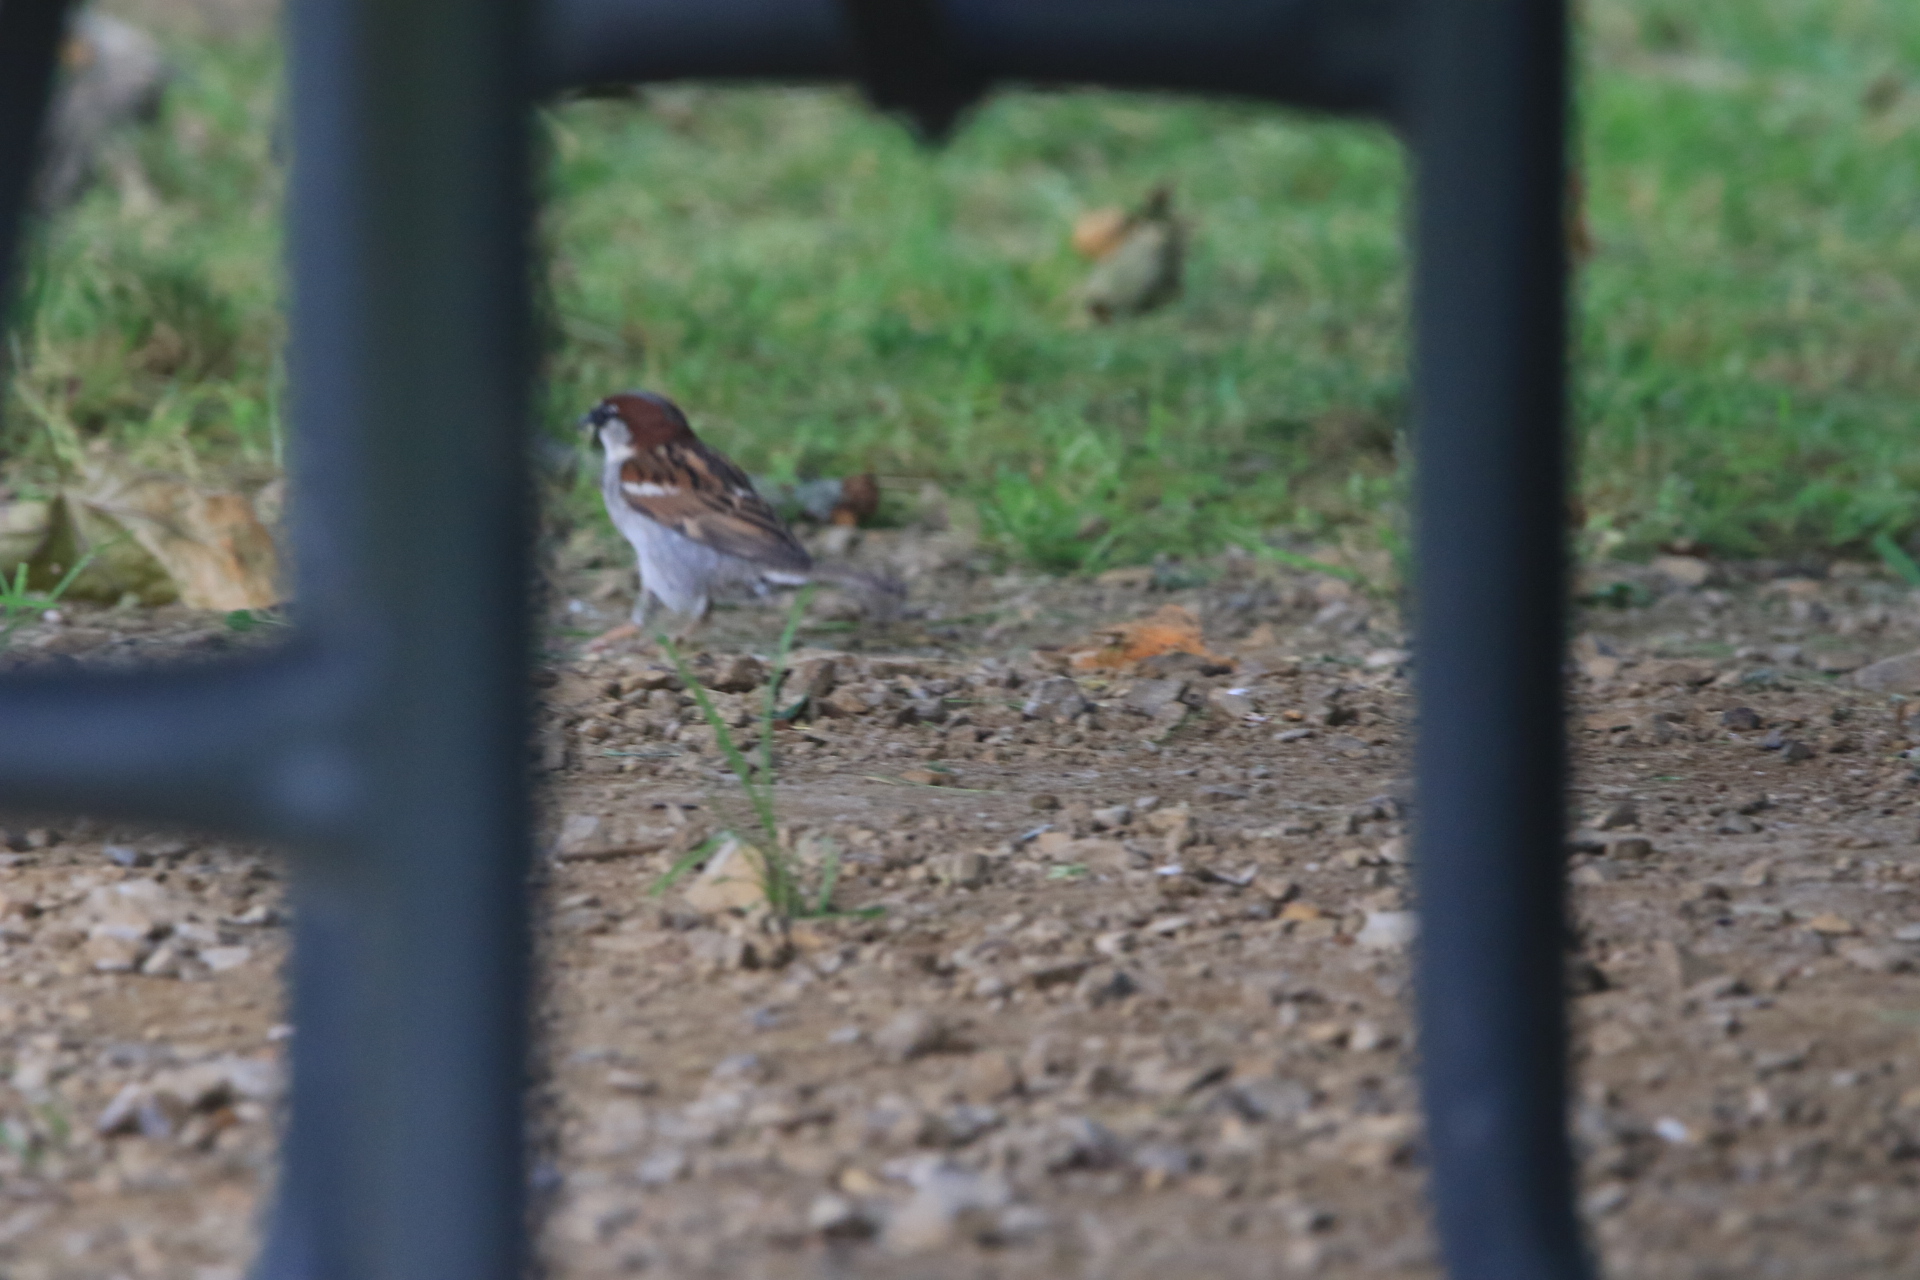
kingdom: Animalia
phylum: Chordata
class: Aves
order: Passeriformes
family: Passeridae
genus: Passer
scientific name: Passer domesticus
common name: House sparrow
